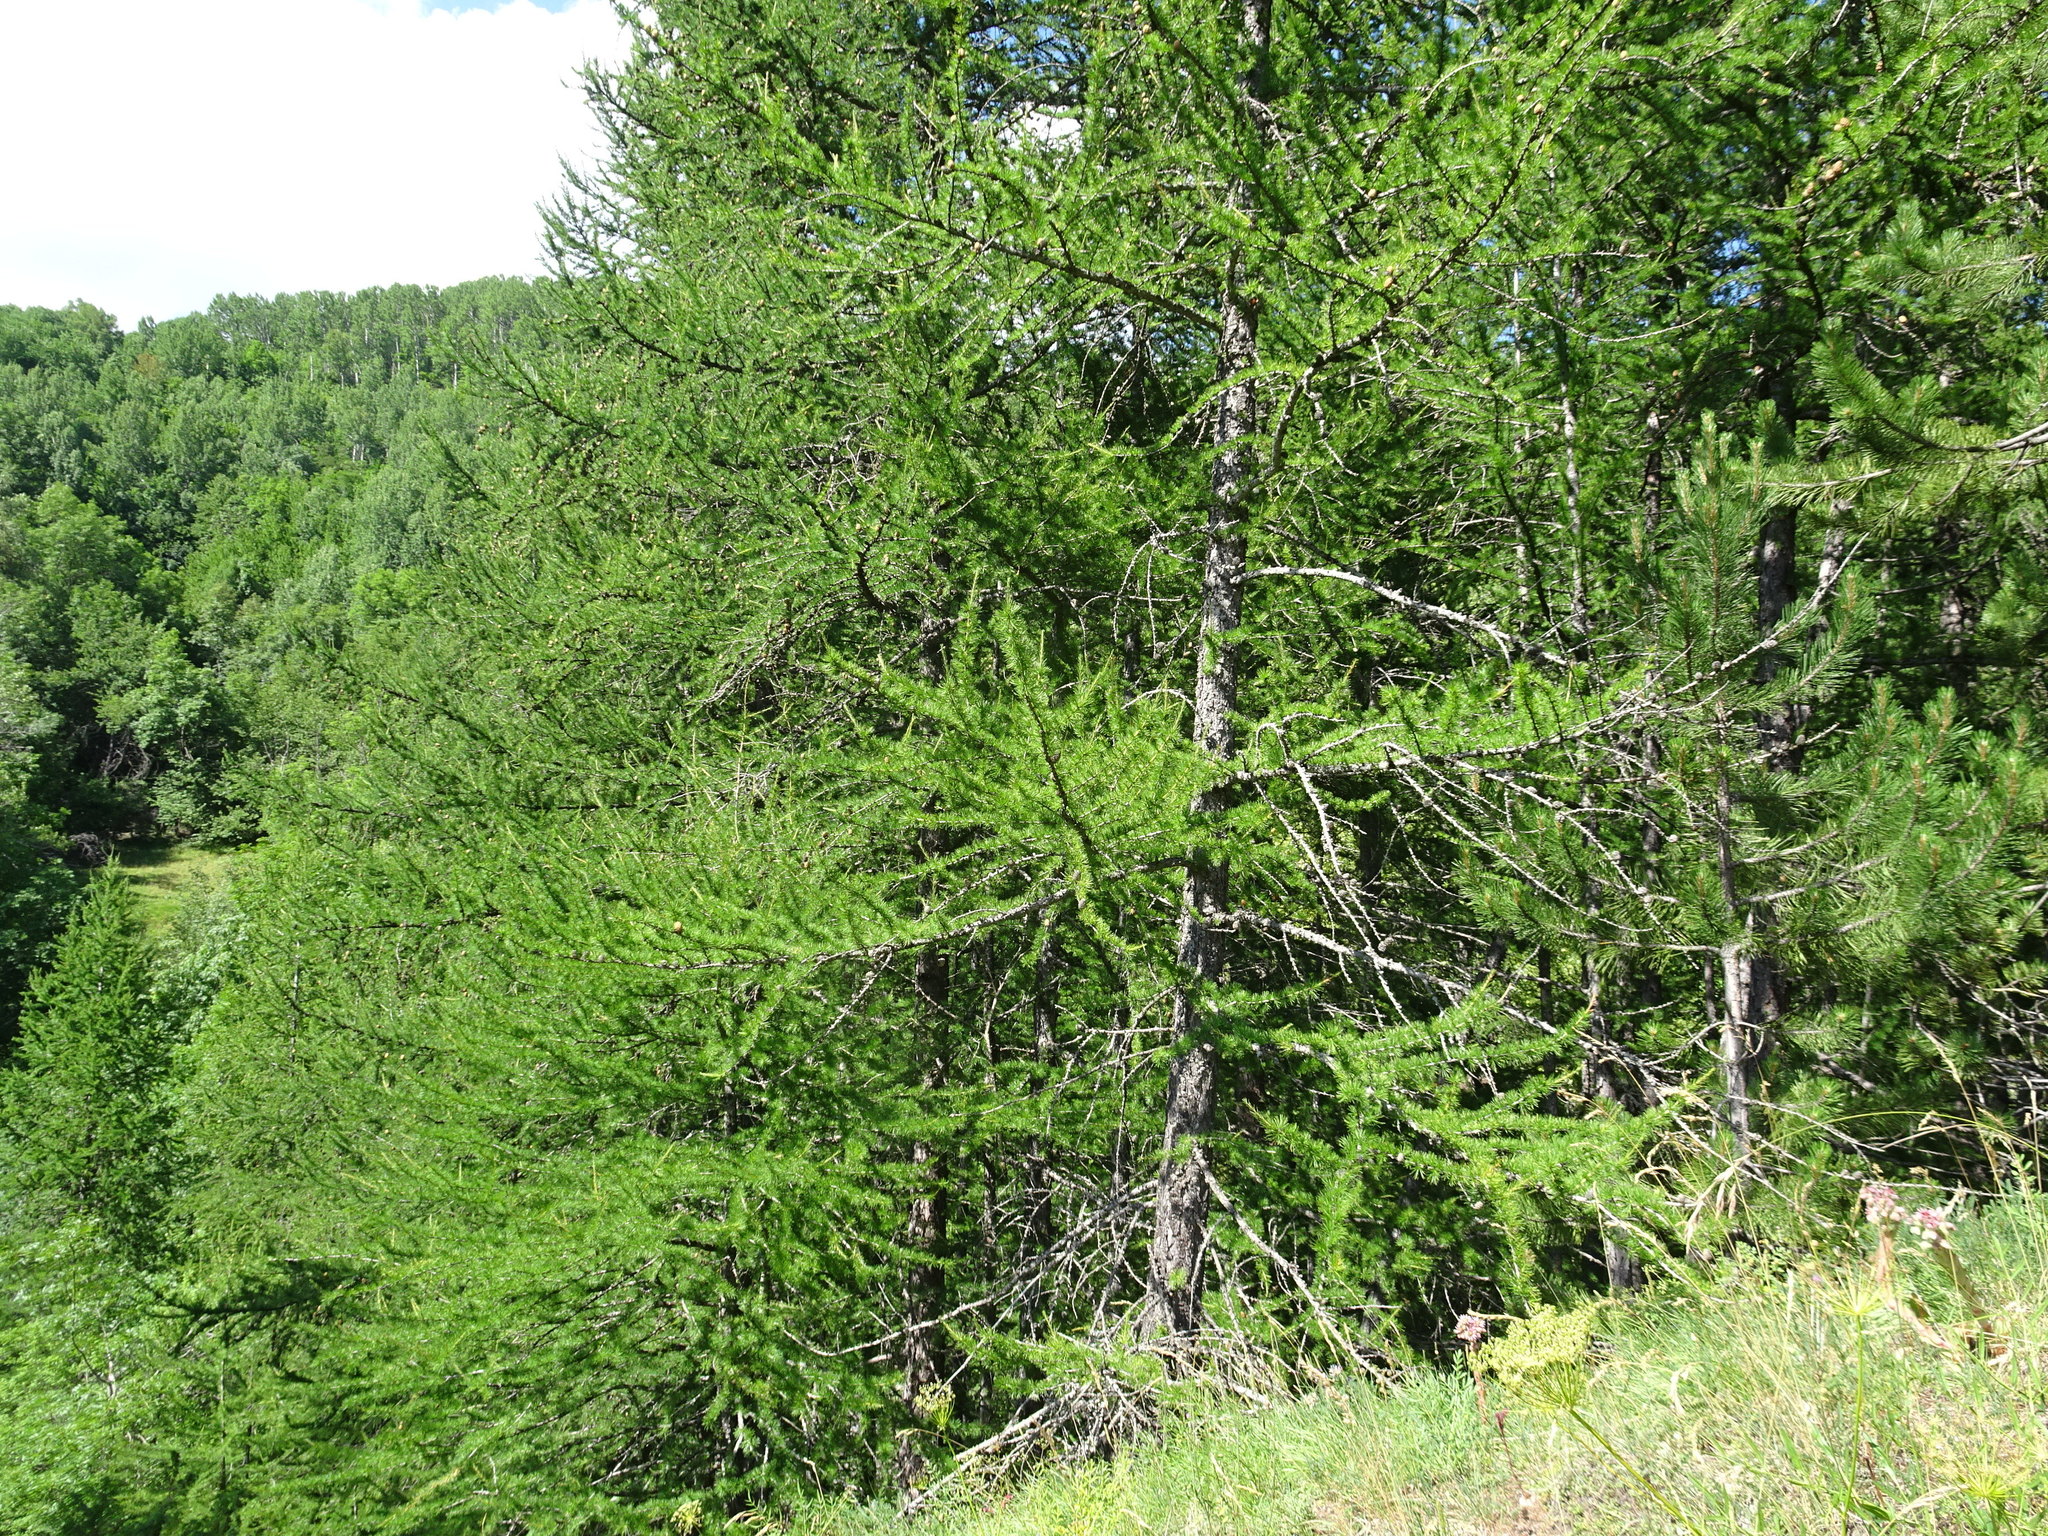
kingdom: Plantae
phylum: Tracheophyta
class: Pinopsida
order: Pinales
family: Pinaceae
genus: Larix
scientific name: Larix decidua
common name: European larch
